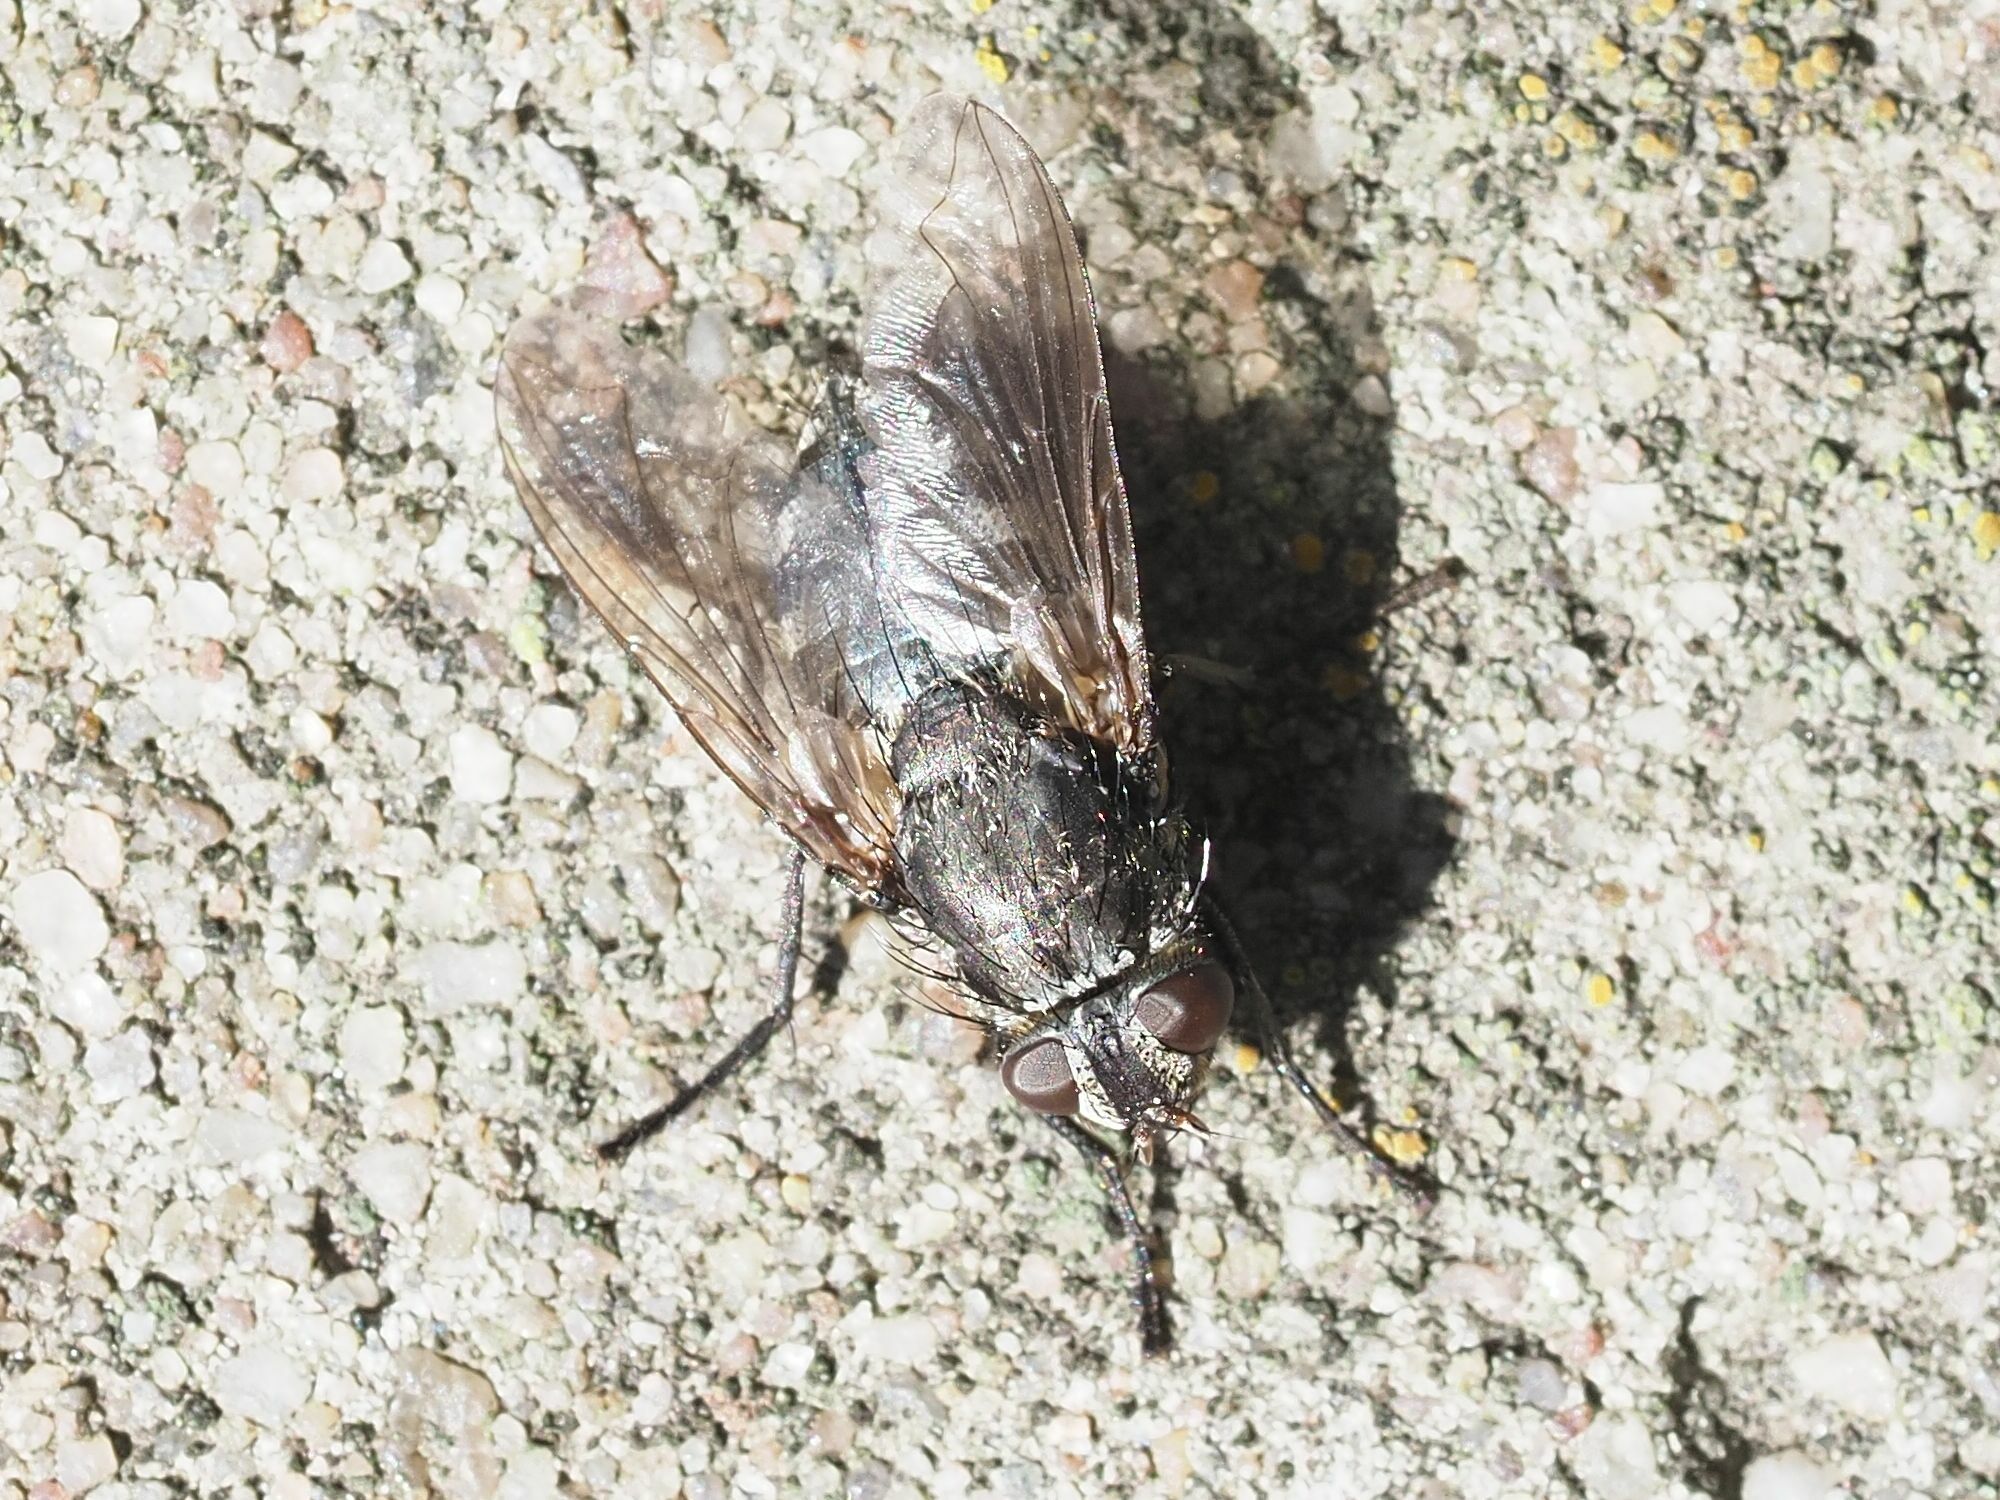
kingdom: Animalia
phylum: Arthropoda
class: Insecta
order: Diptera
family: Polleniidae
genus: Pollenia
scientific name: Pollenia vagabunda
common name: Vagabund cluster fly
